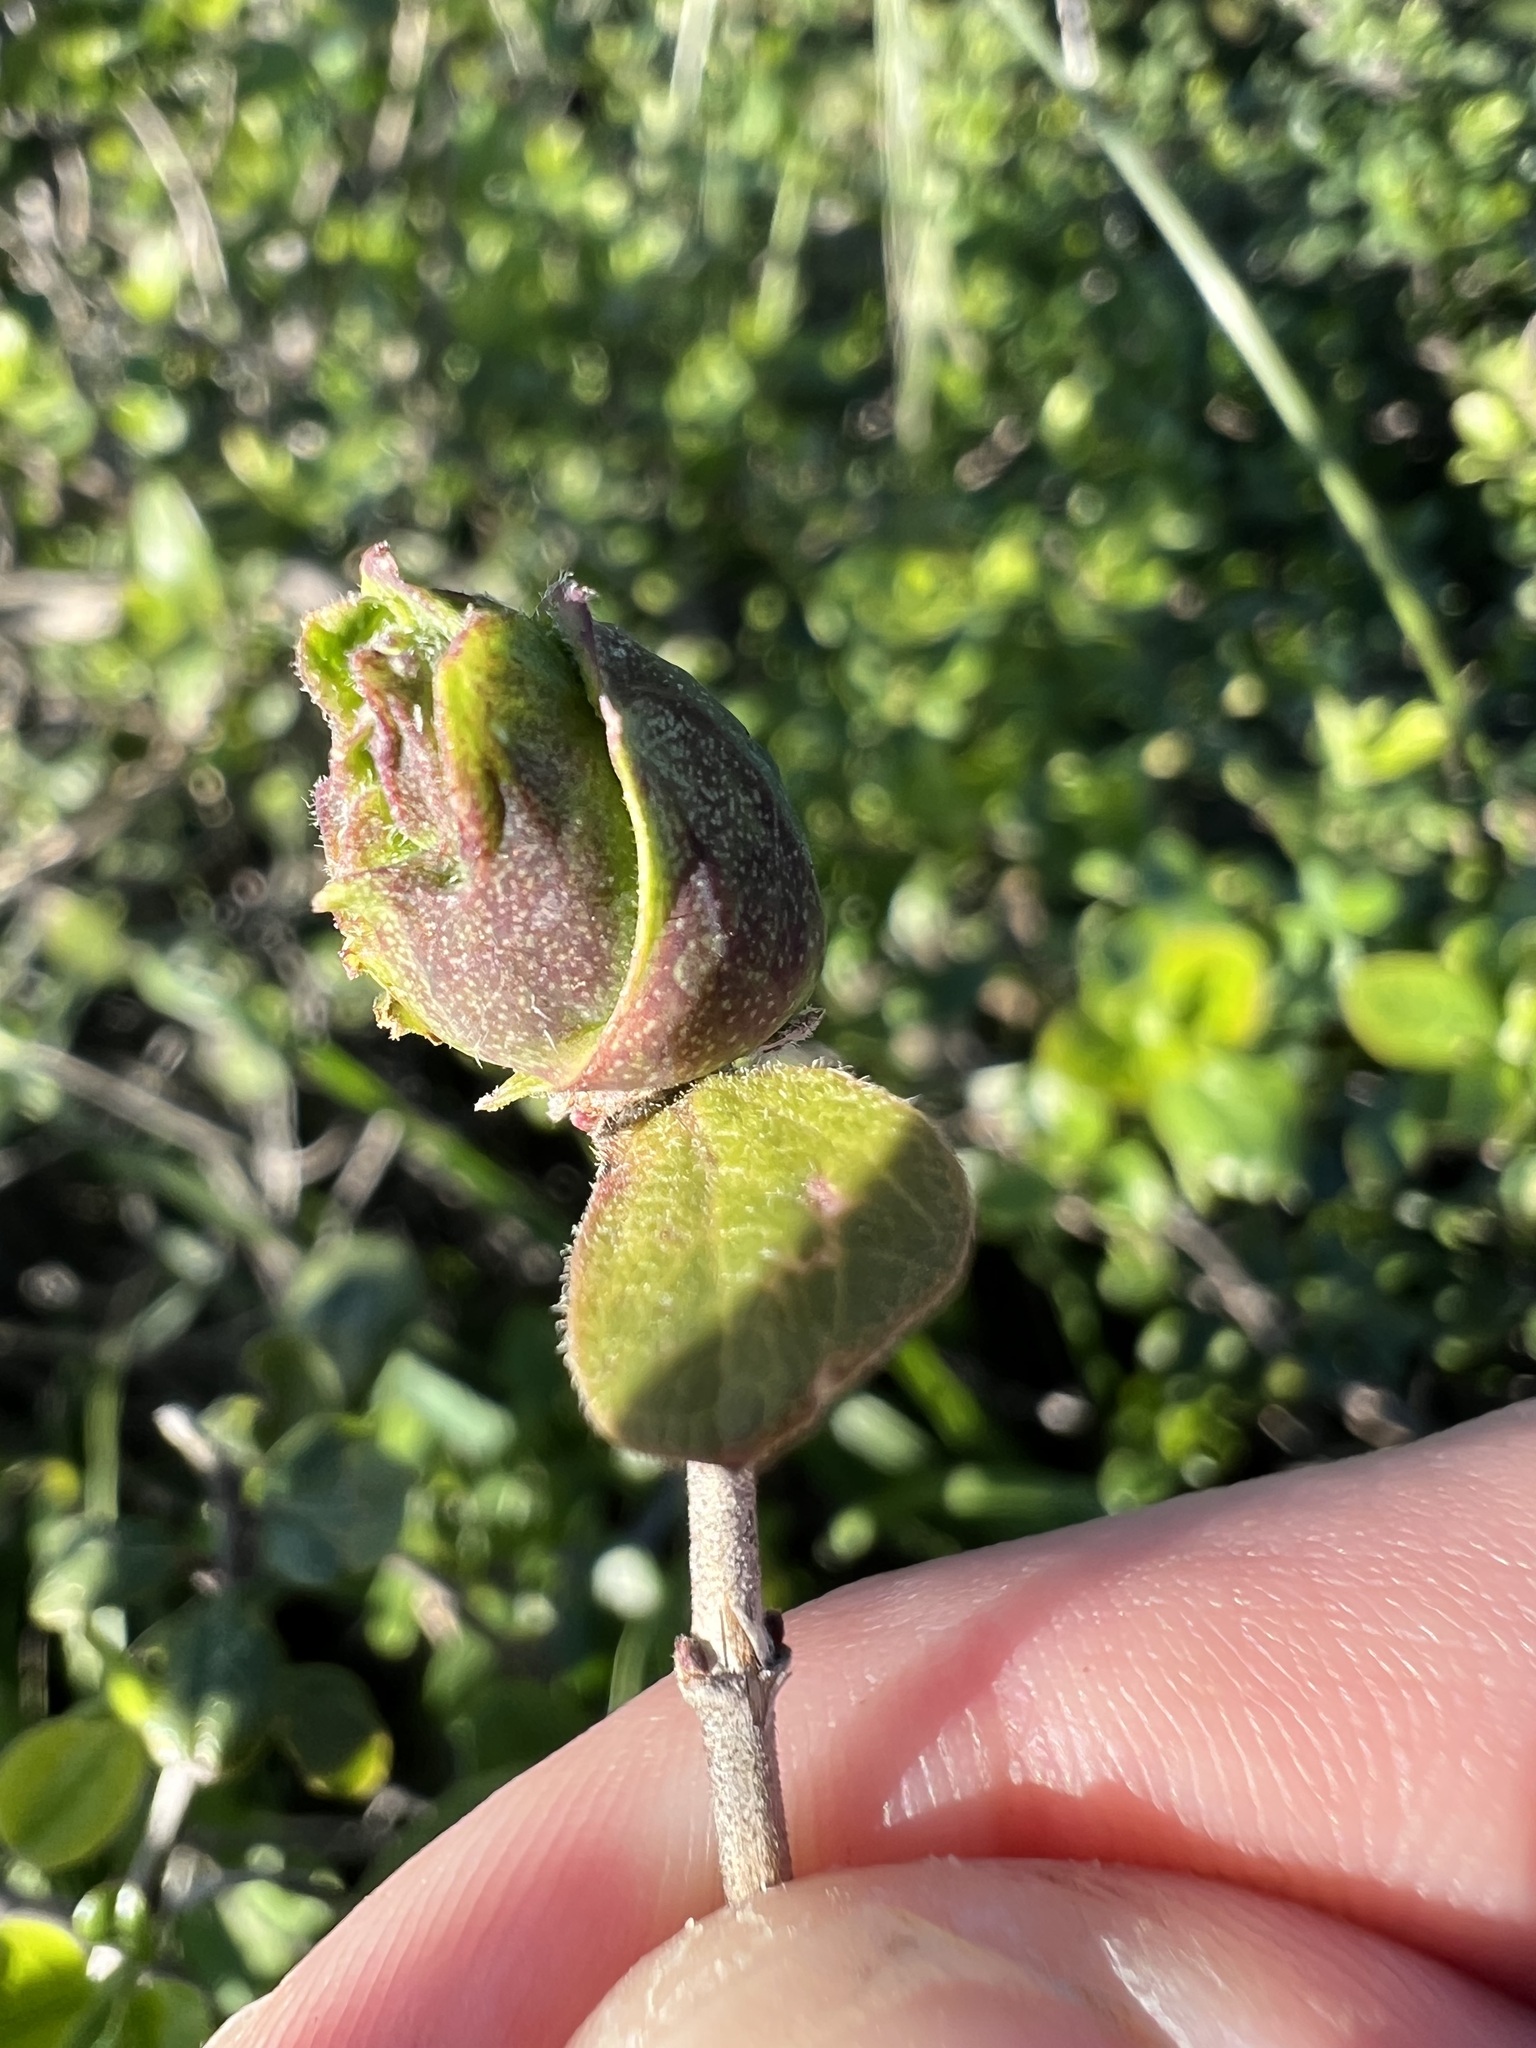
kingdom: Plantae
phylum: Tracheophyta
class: Magnoliopsida
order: Dipsacales
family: Caprifoliaceae
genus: Lonicera
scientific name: Lonicera subspicata
